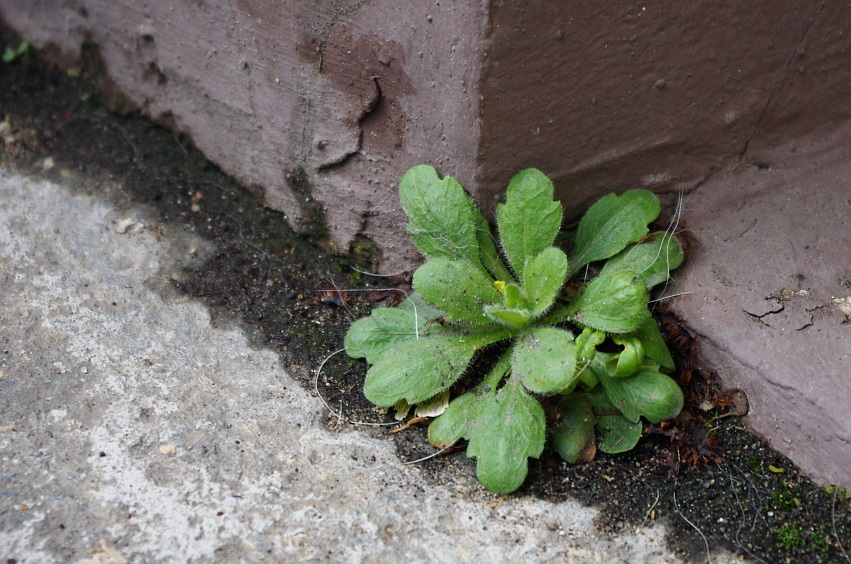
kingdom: Plantae
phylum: Tracheophyta
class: Magnoliopsida
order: Asterales
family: Asteraceae
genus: Erigeron
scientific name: Erigeron canadensis
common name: Canadian fleabane
